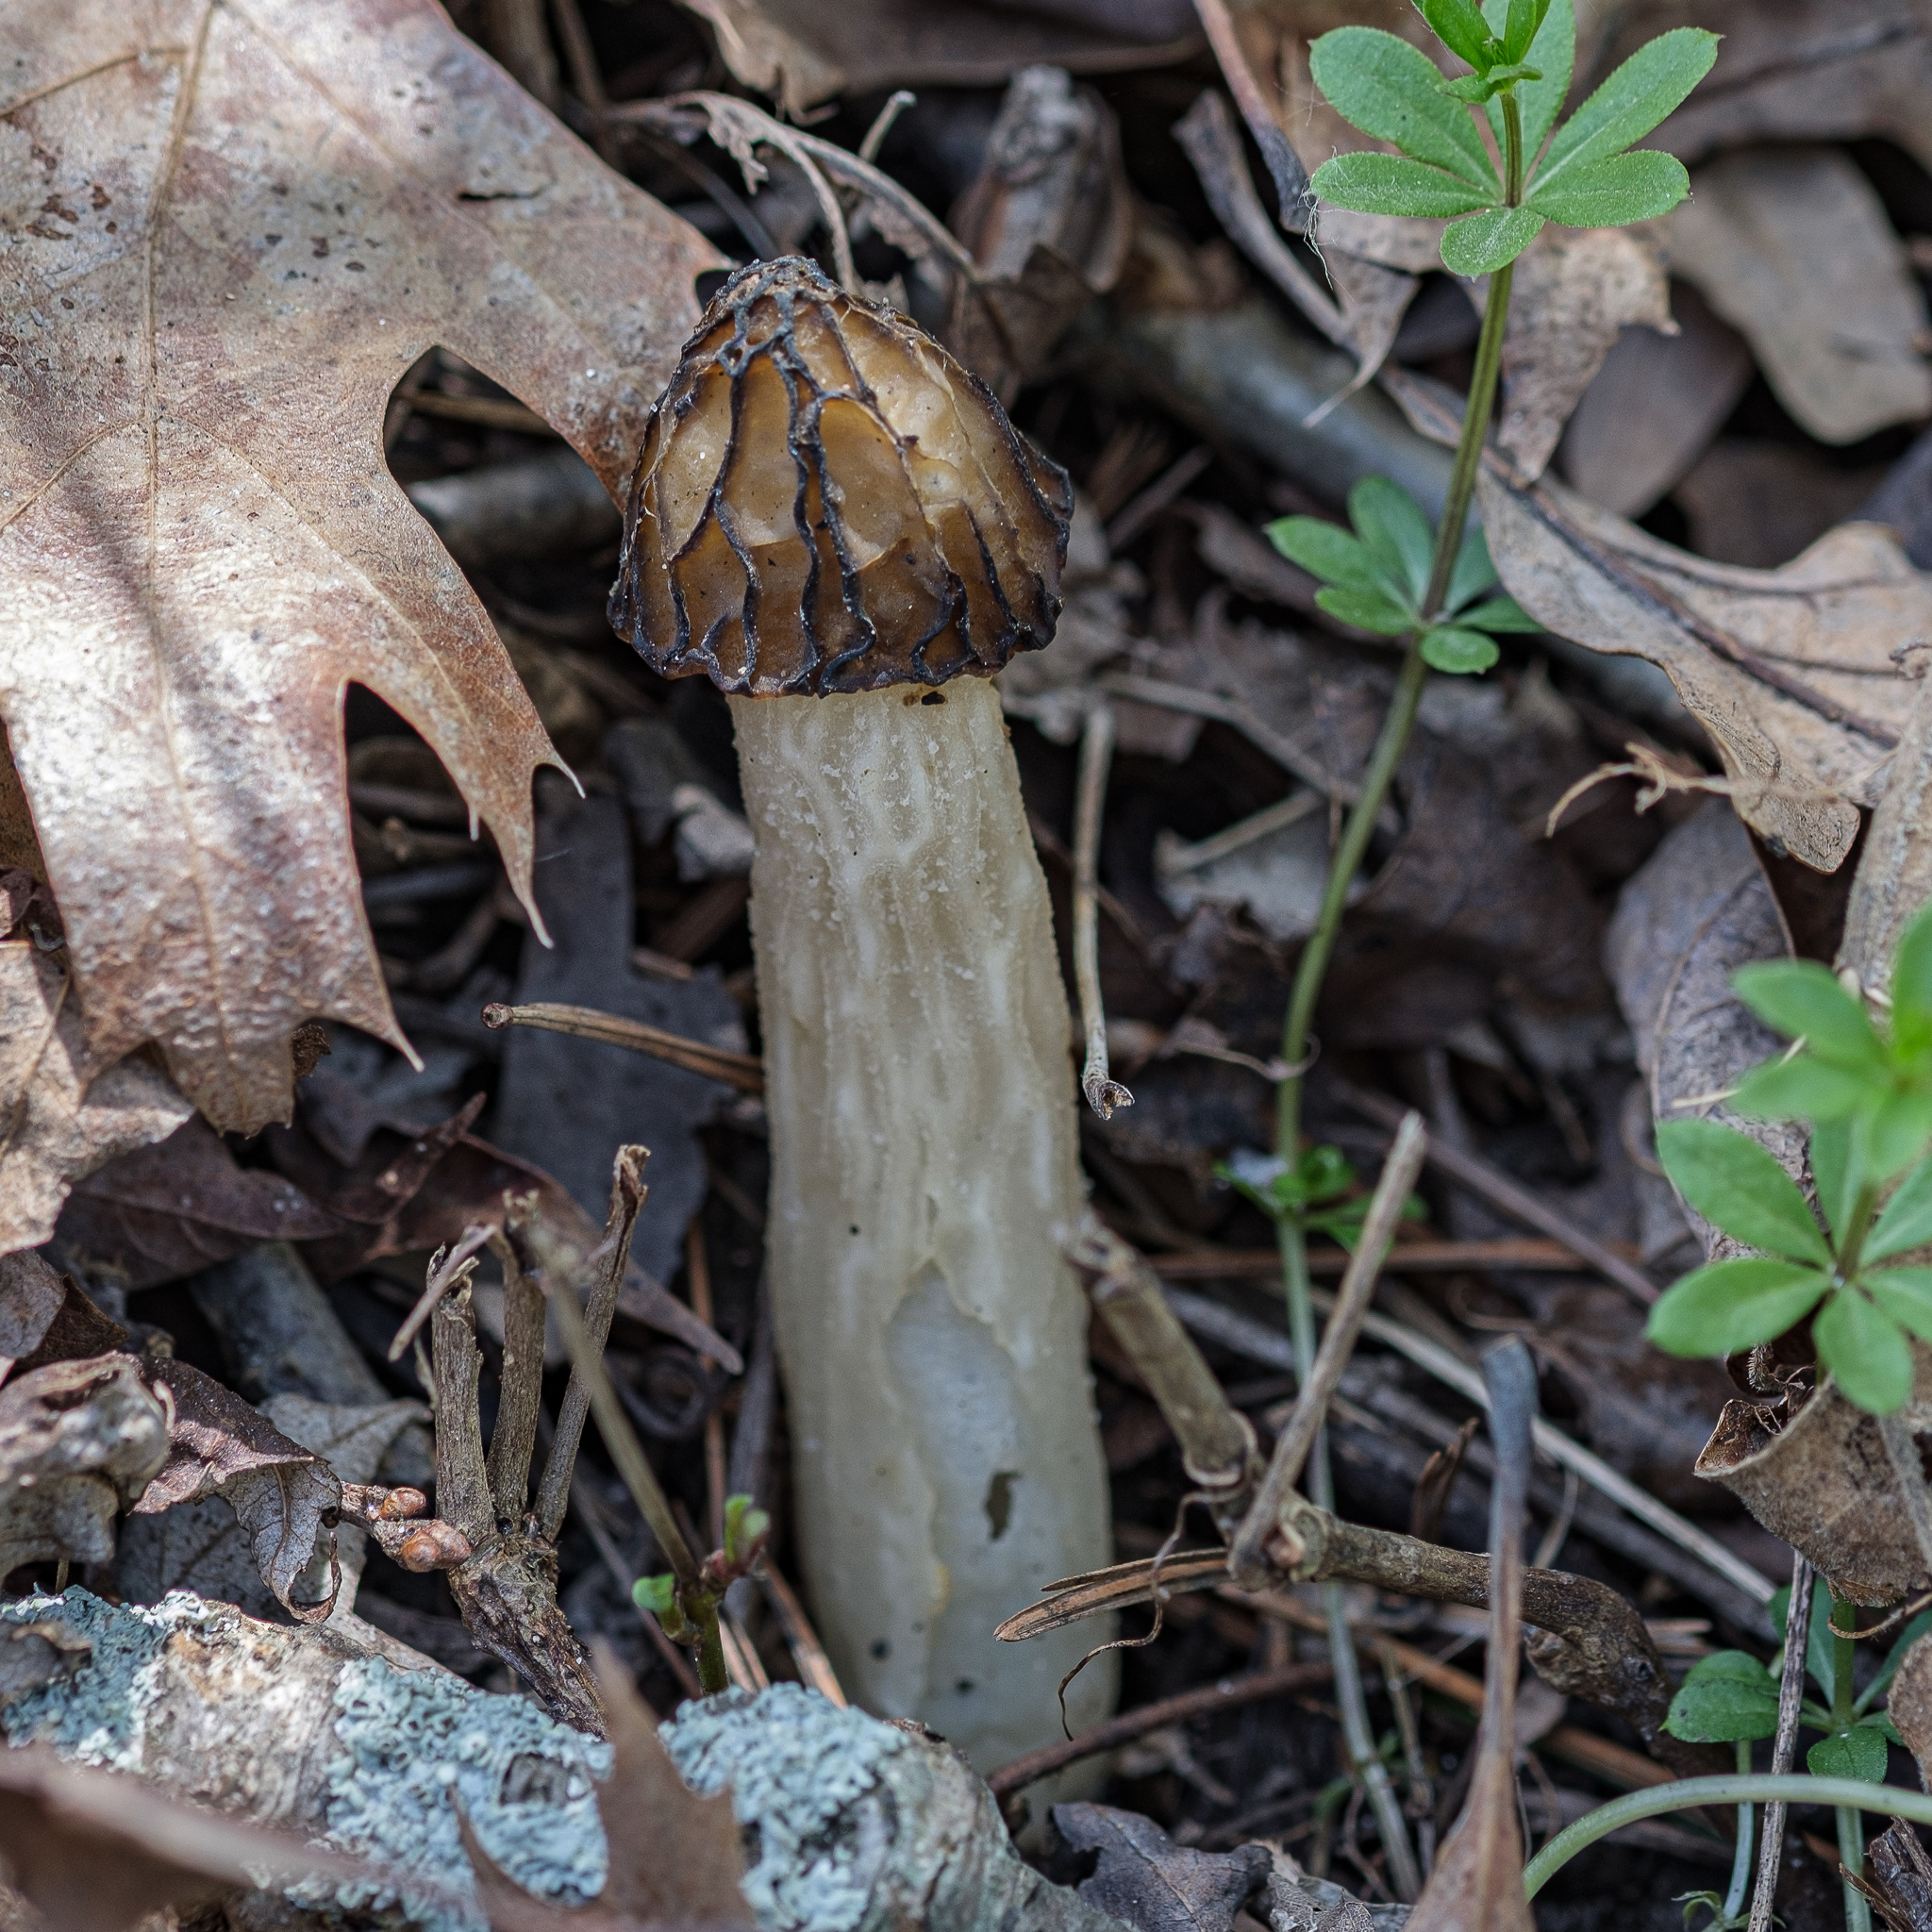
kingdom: Fungi
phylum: Ascomycota
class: Pezizomycetes
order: Pezizales
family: Morchellaceae
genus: Morchella
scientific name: Morchella punctipes
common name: Half-free morel
